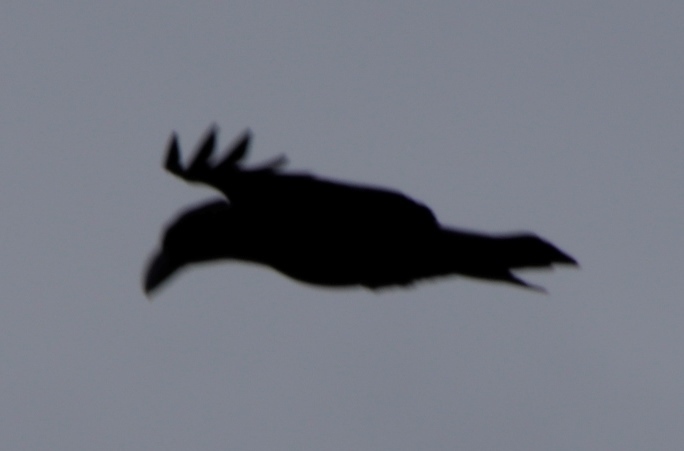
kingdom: Animalia
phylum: Chordata
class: Aves
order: Passeriformes
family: Corvidae
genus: Corvus
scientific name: Corvus albicollis
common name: White-necked raven
